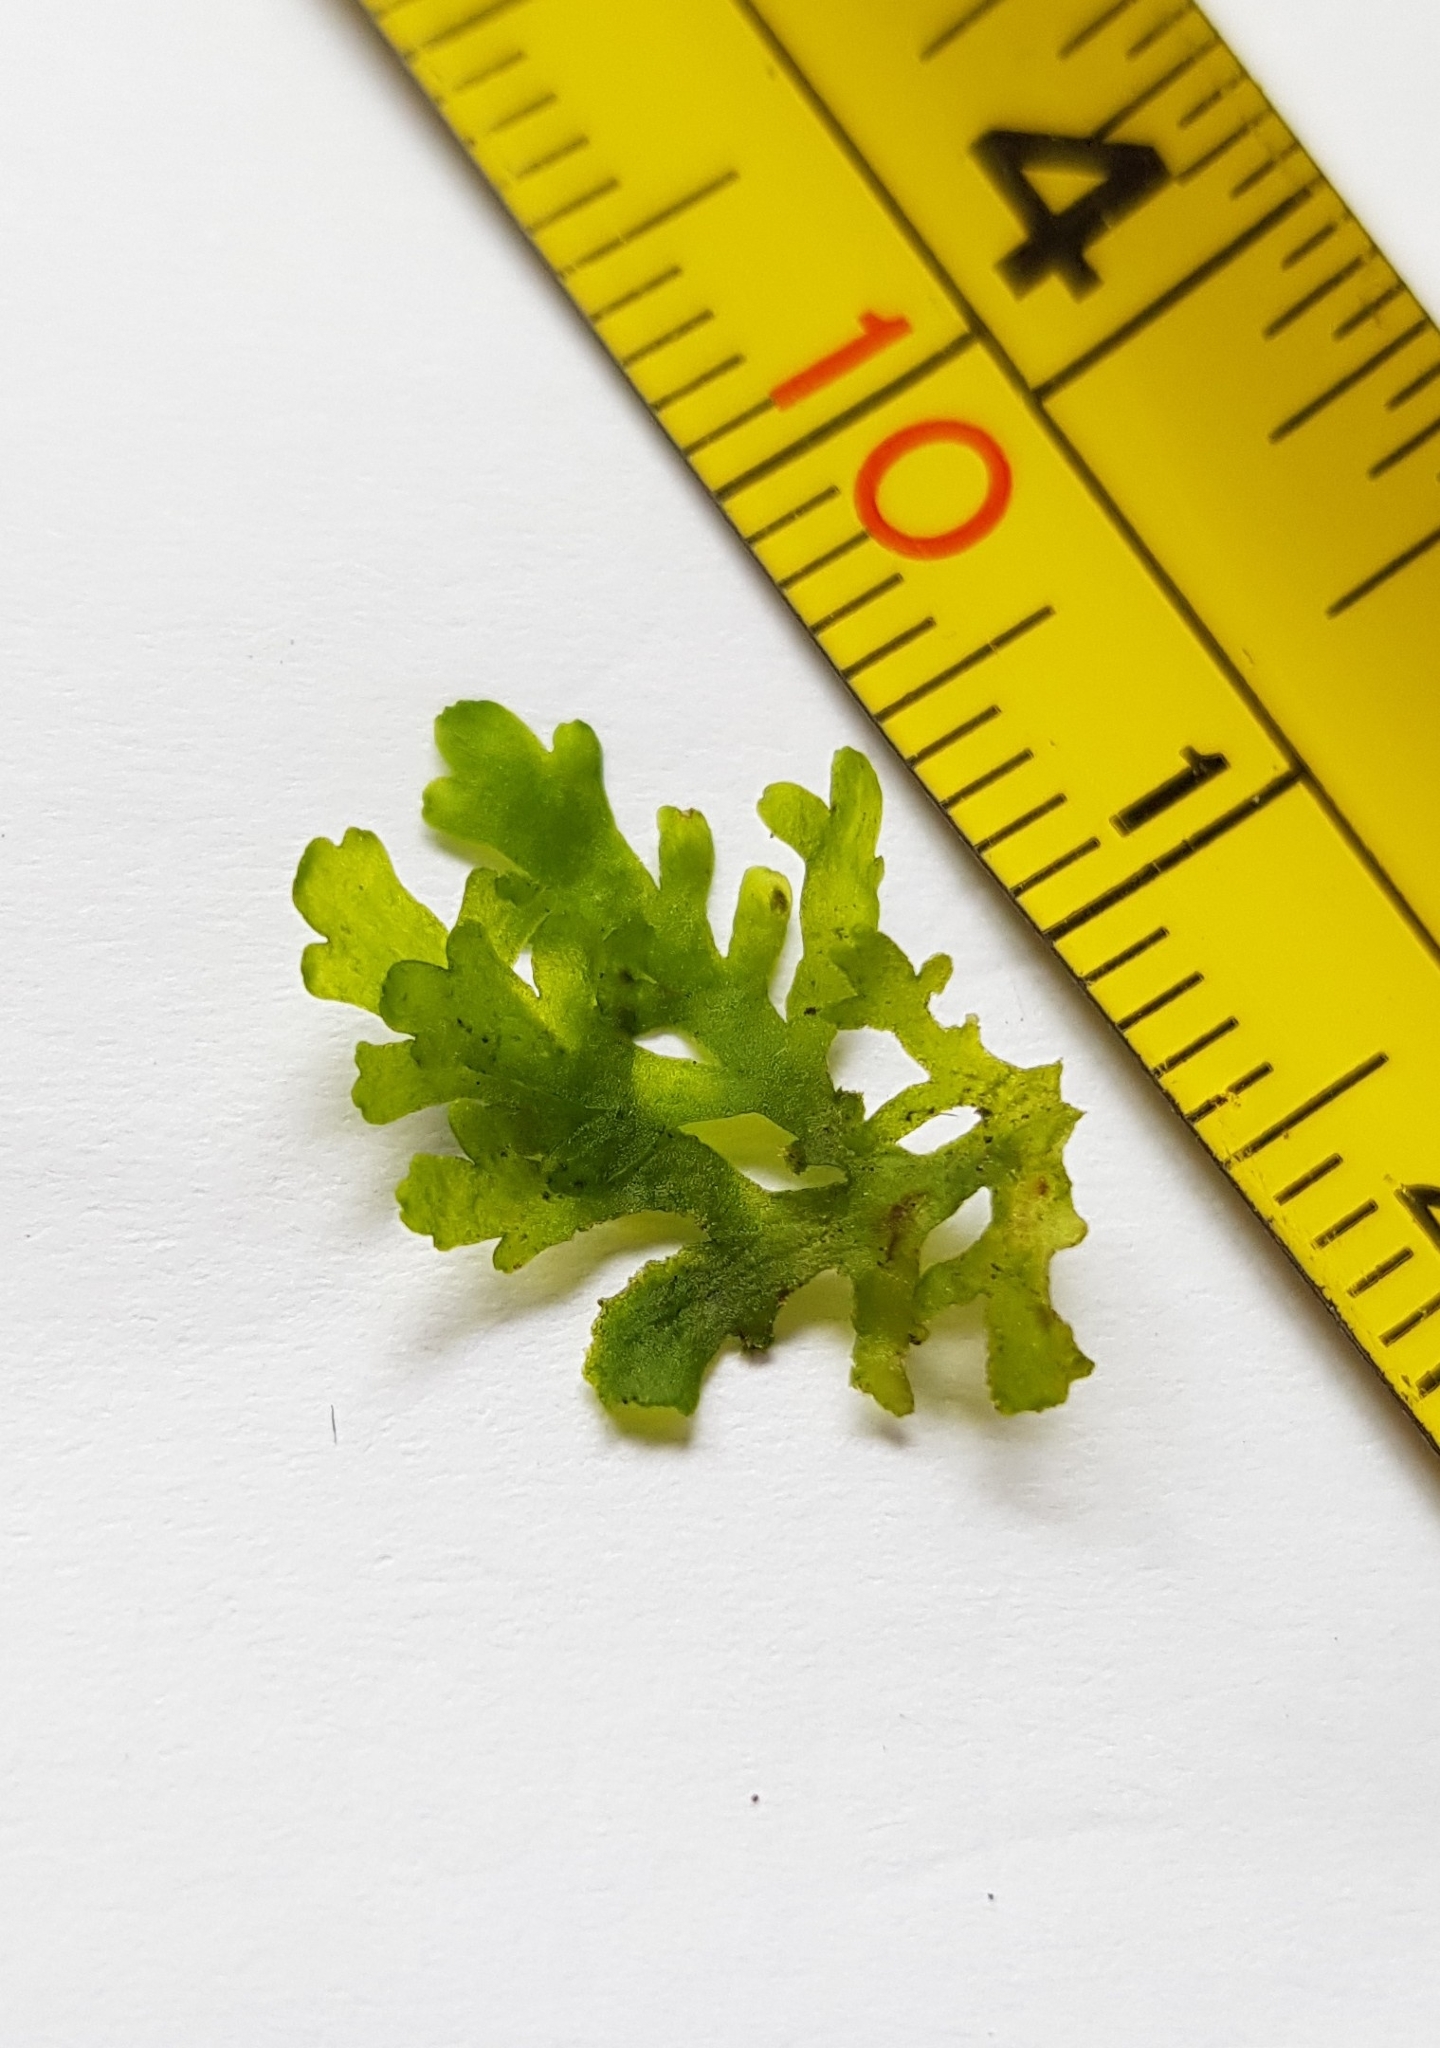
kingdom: Plantae
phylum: Marchantiophyta
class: Jungermanniopsida
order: Metzgeriales
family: Aneuraceae
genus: Riccardia
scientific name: Riccardia multifida
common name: Delicate germanderwort
